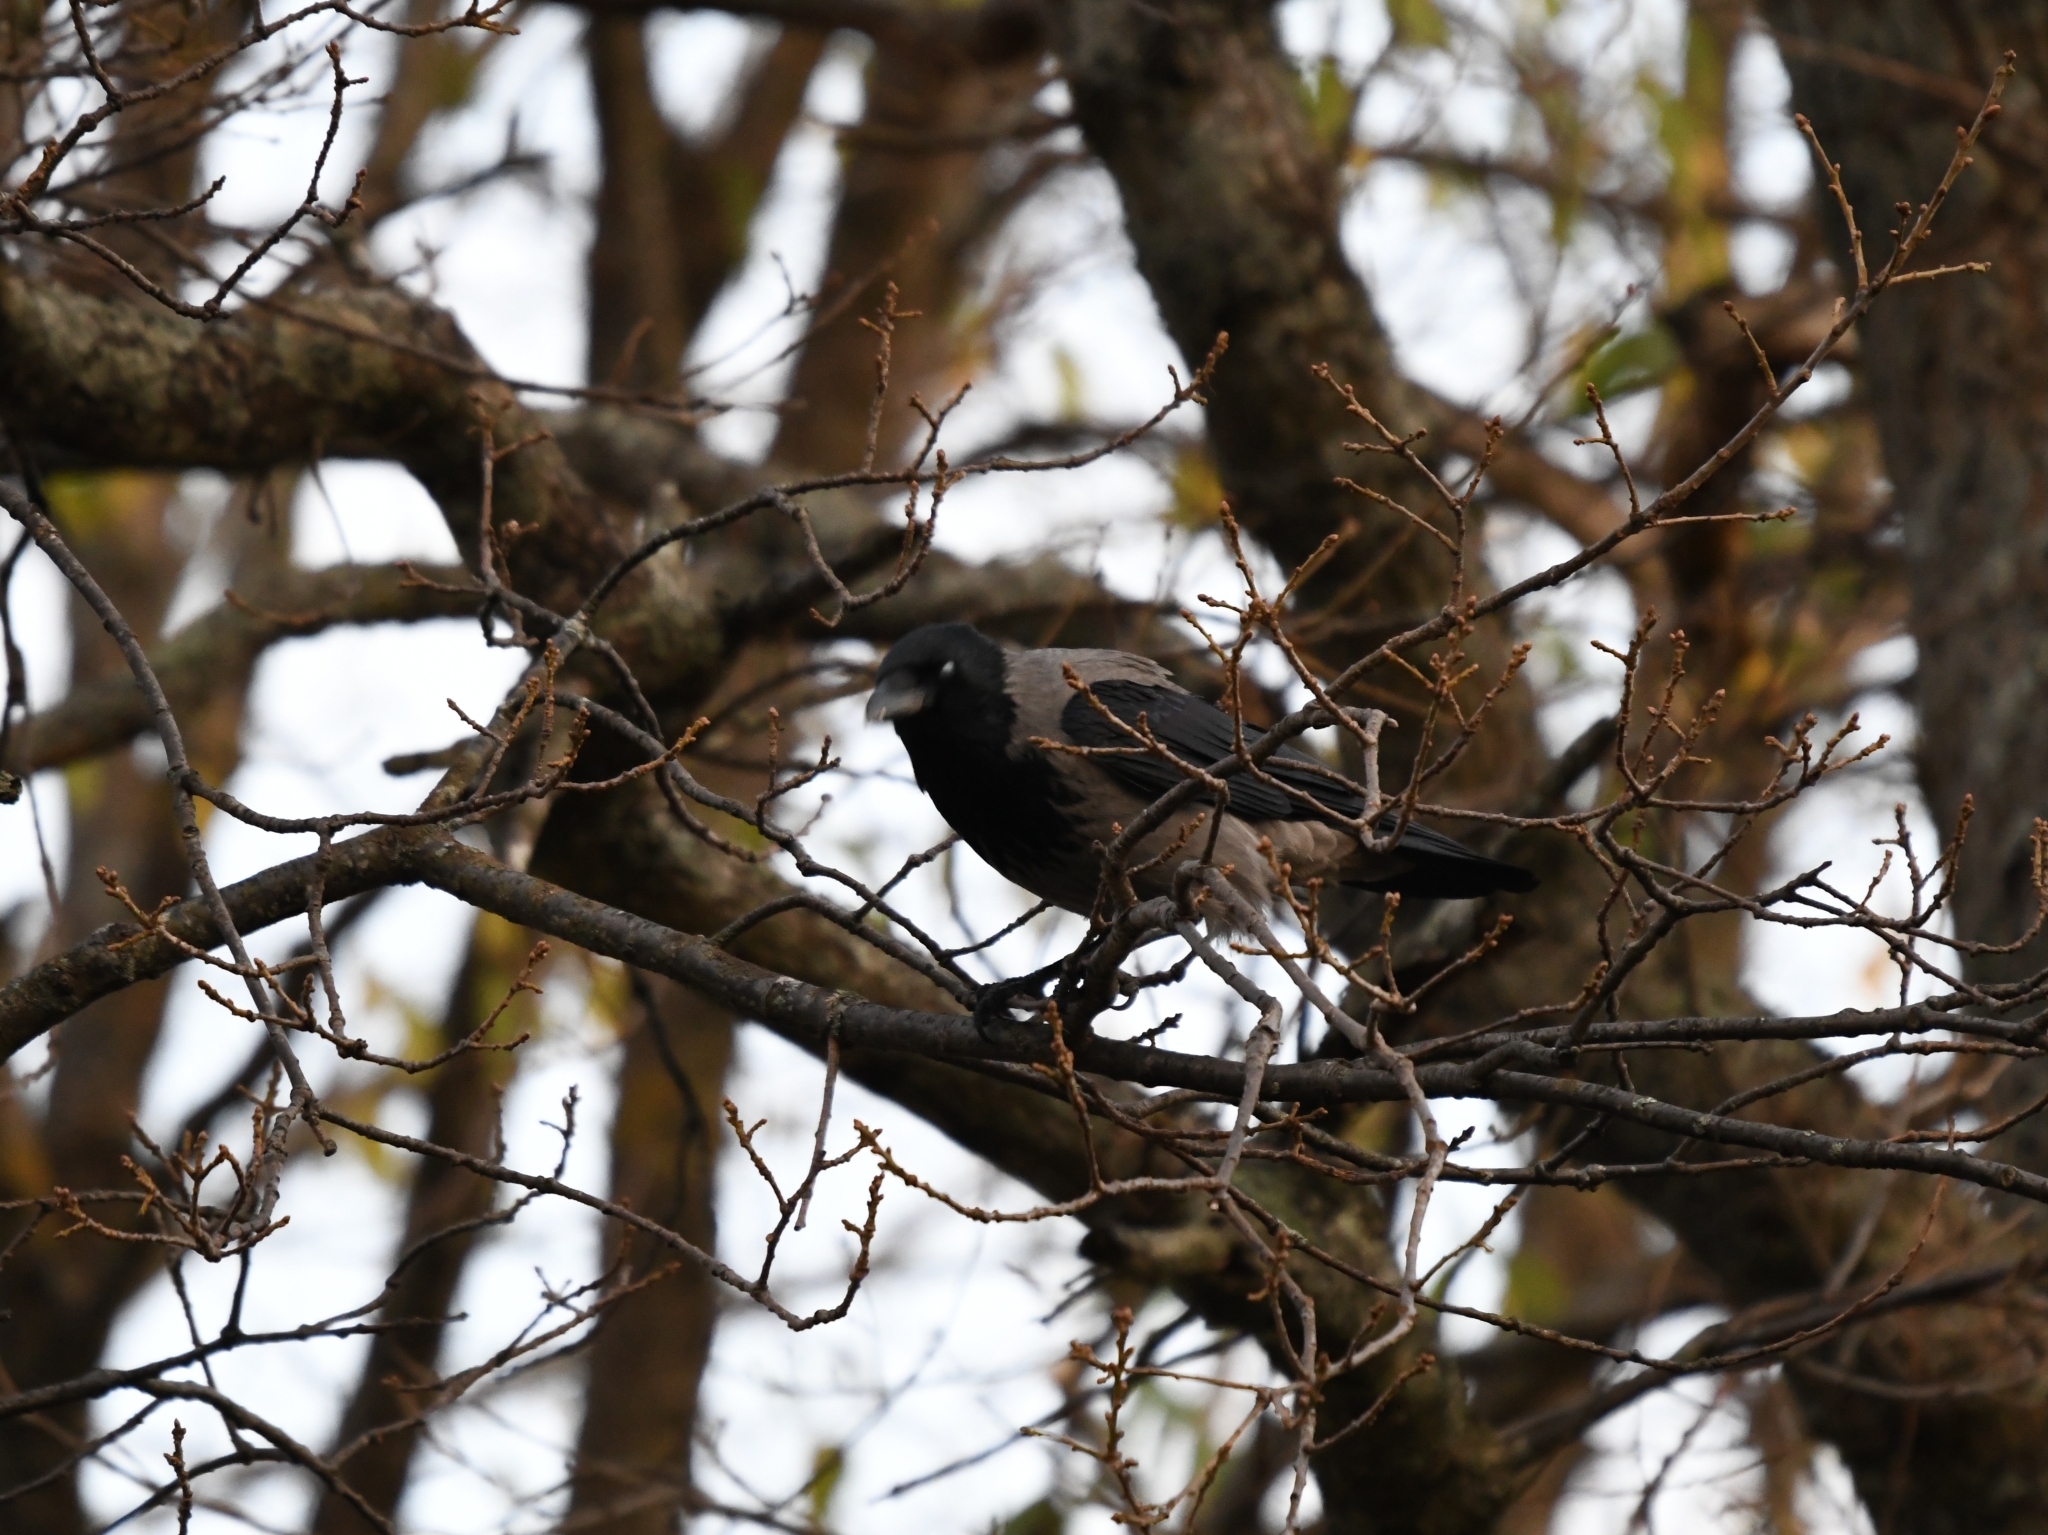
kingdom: Animalia
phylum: Chordata
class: Aves
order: Passeriformes
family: Corvidae
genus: Corvus
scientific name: Corvus cornix
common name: Hooded crow
